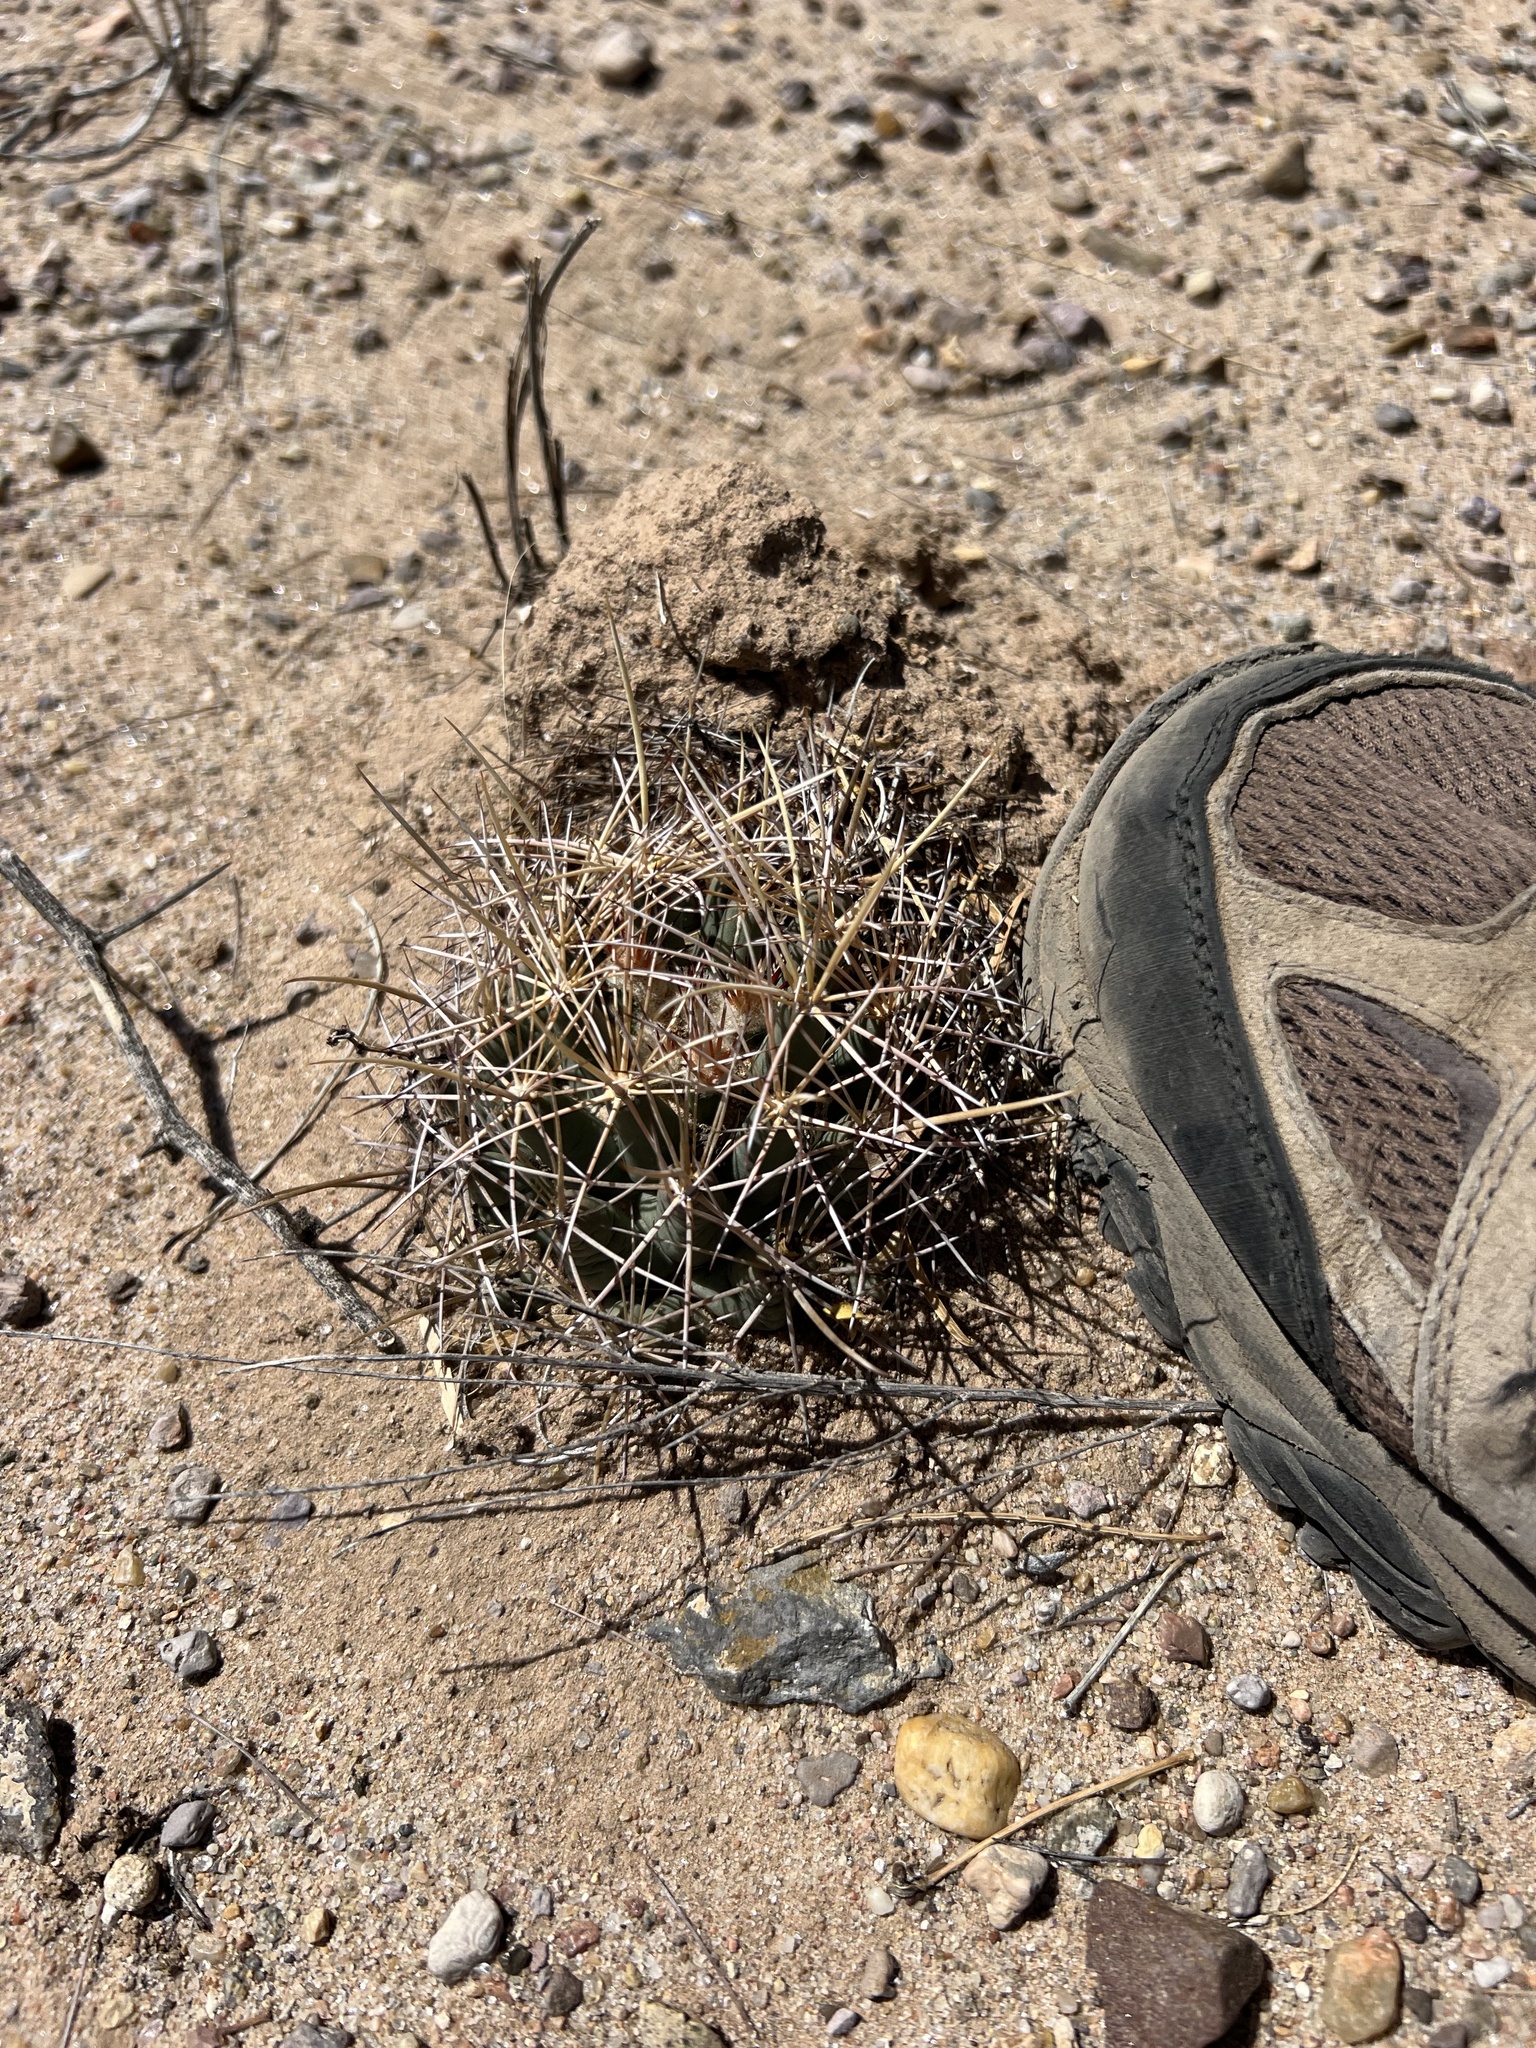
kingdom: Plantae
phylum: Tracheophyta
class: Magnoliopsida
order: Caryophyllales
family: Cactaceae
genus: Coryphantha
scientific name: Coryphantha robustispina
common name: Pima pineapple cactus
